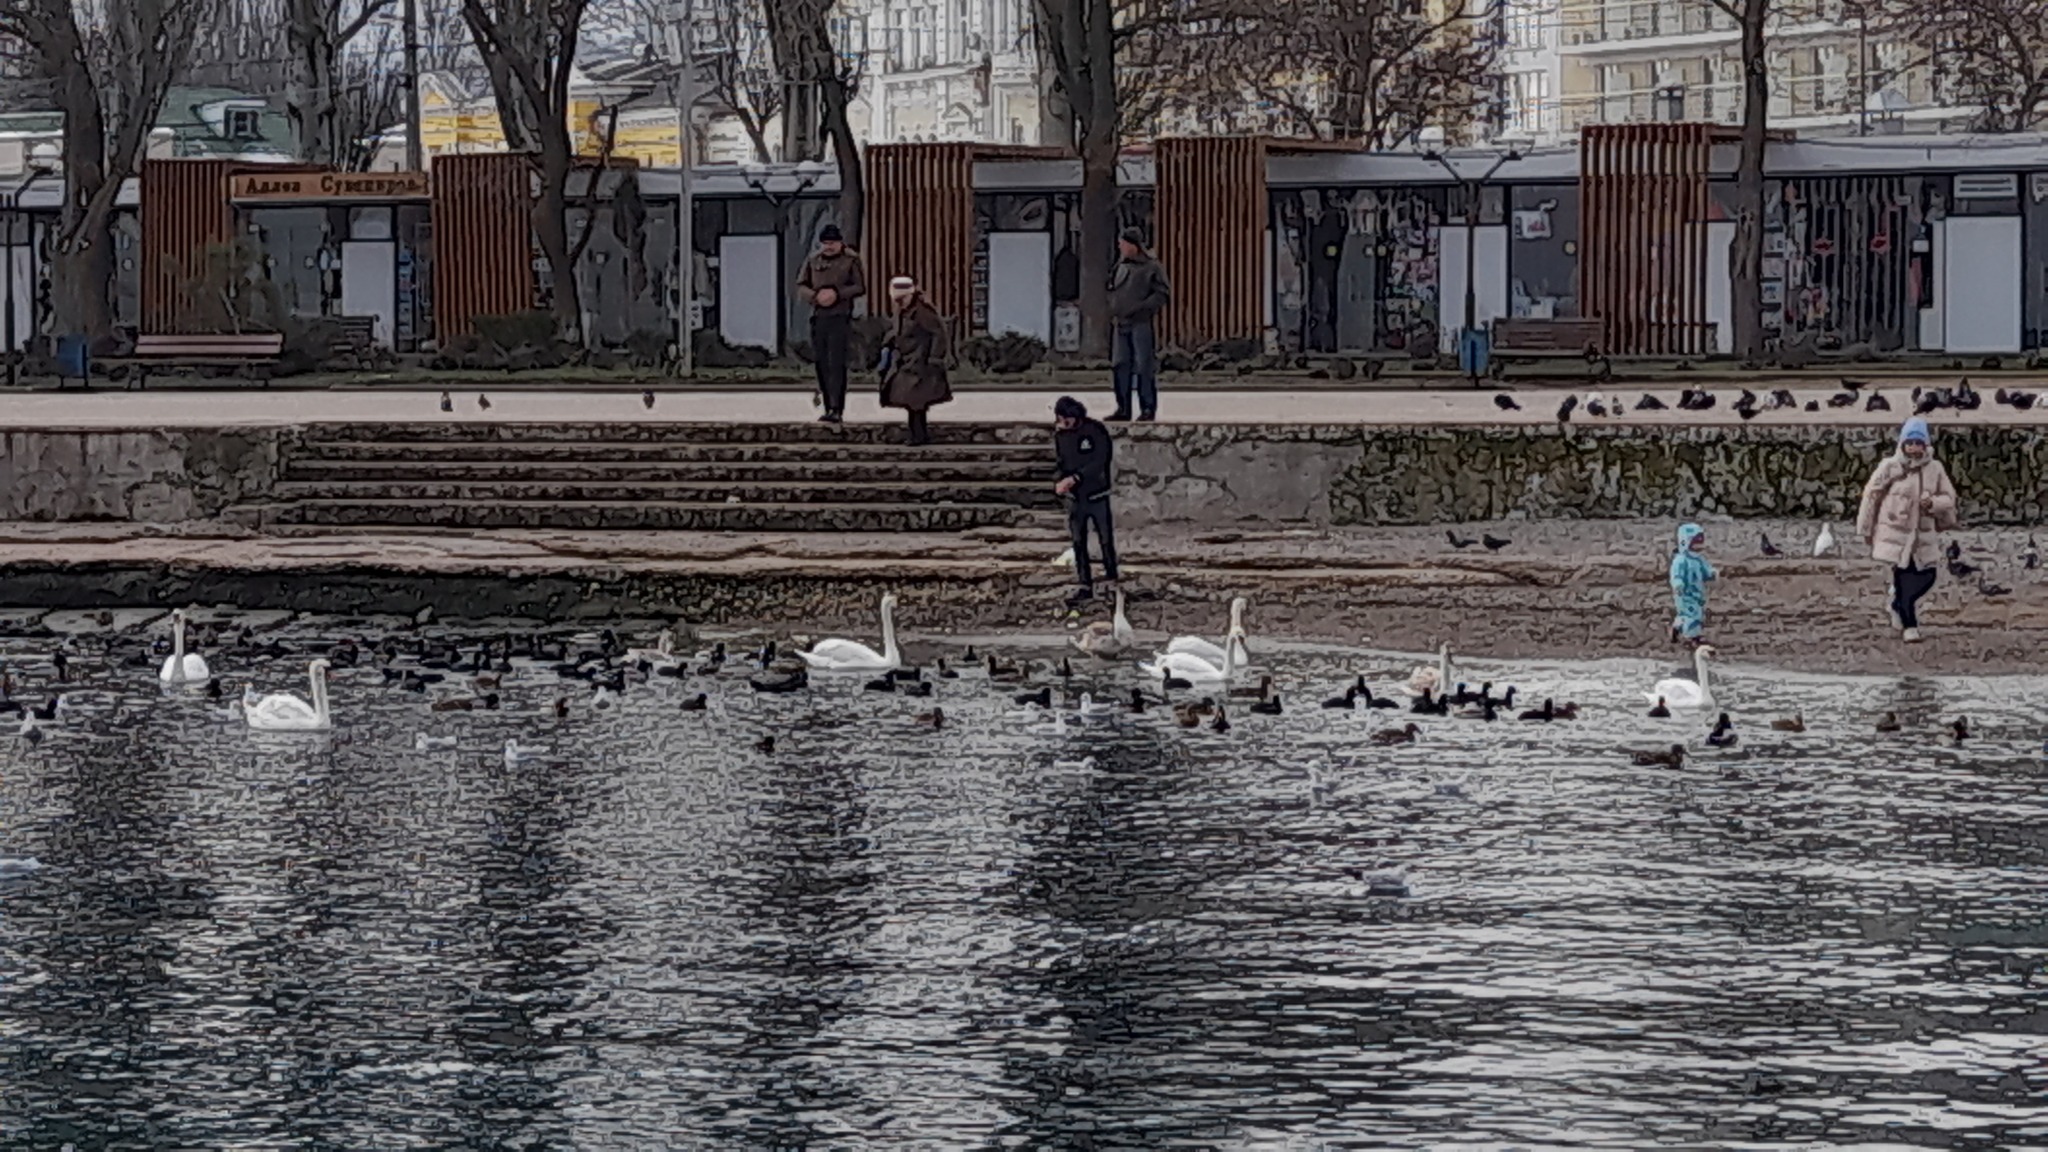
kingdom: Animalia
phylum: Chordata
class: Aves
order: Anseriformes
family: Anatidae
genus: Cygnus
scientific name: Cygnus olor
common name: Mute swan
